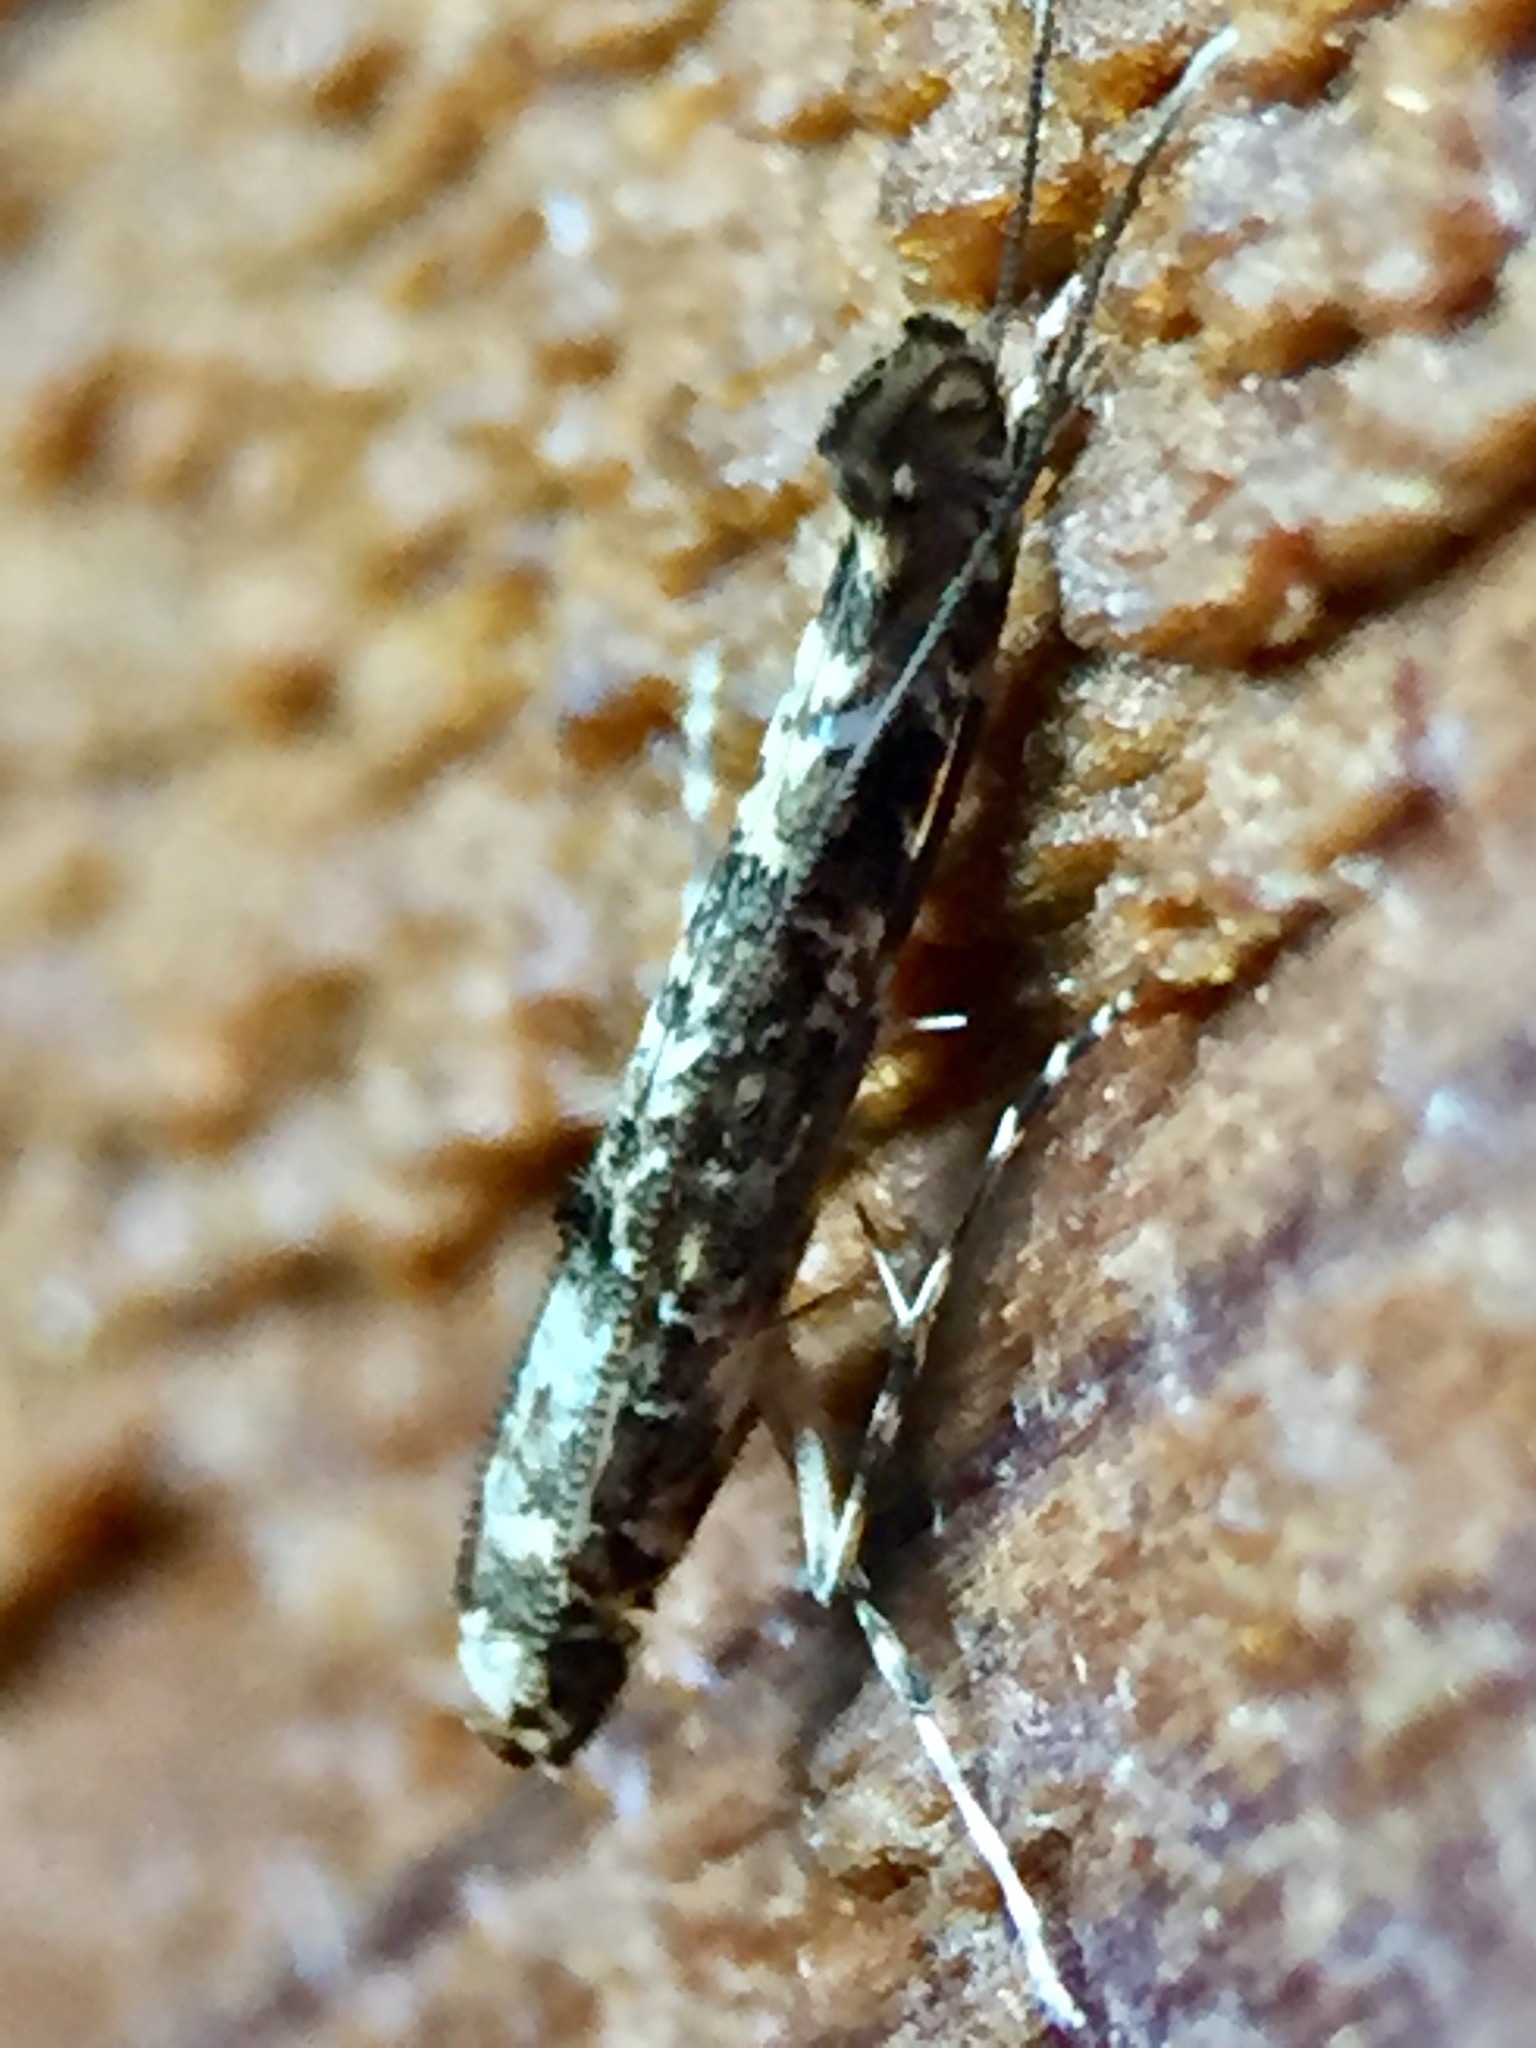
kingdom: Animalia
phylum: Arthropoda
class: Insecta
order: Lepidoptera
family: Gracillariidae
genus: Conopomorpha
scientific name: Conopomorpha cyanospila
